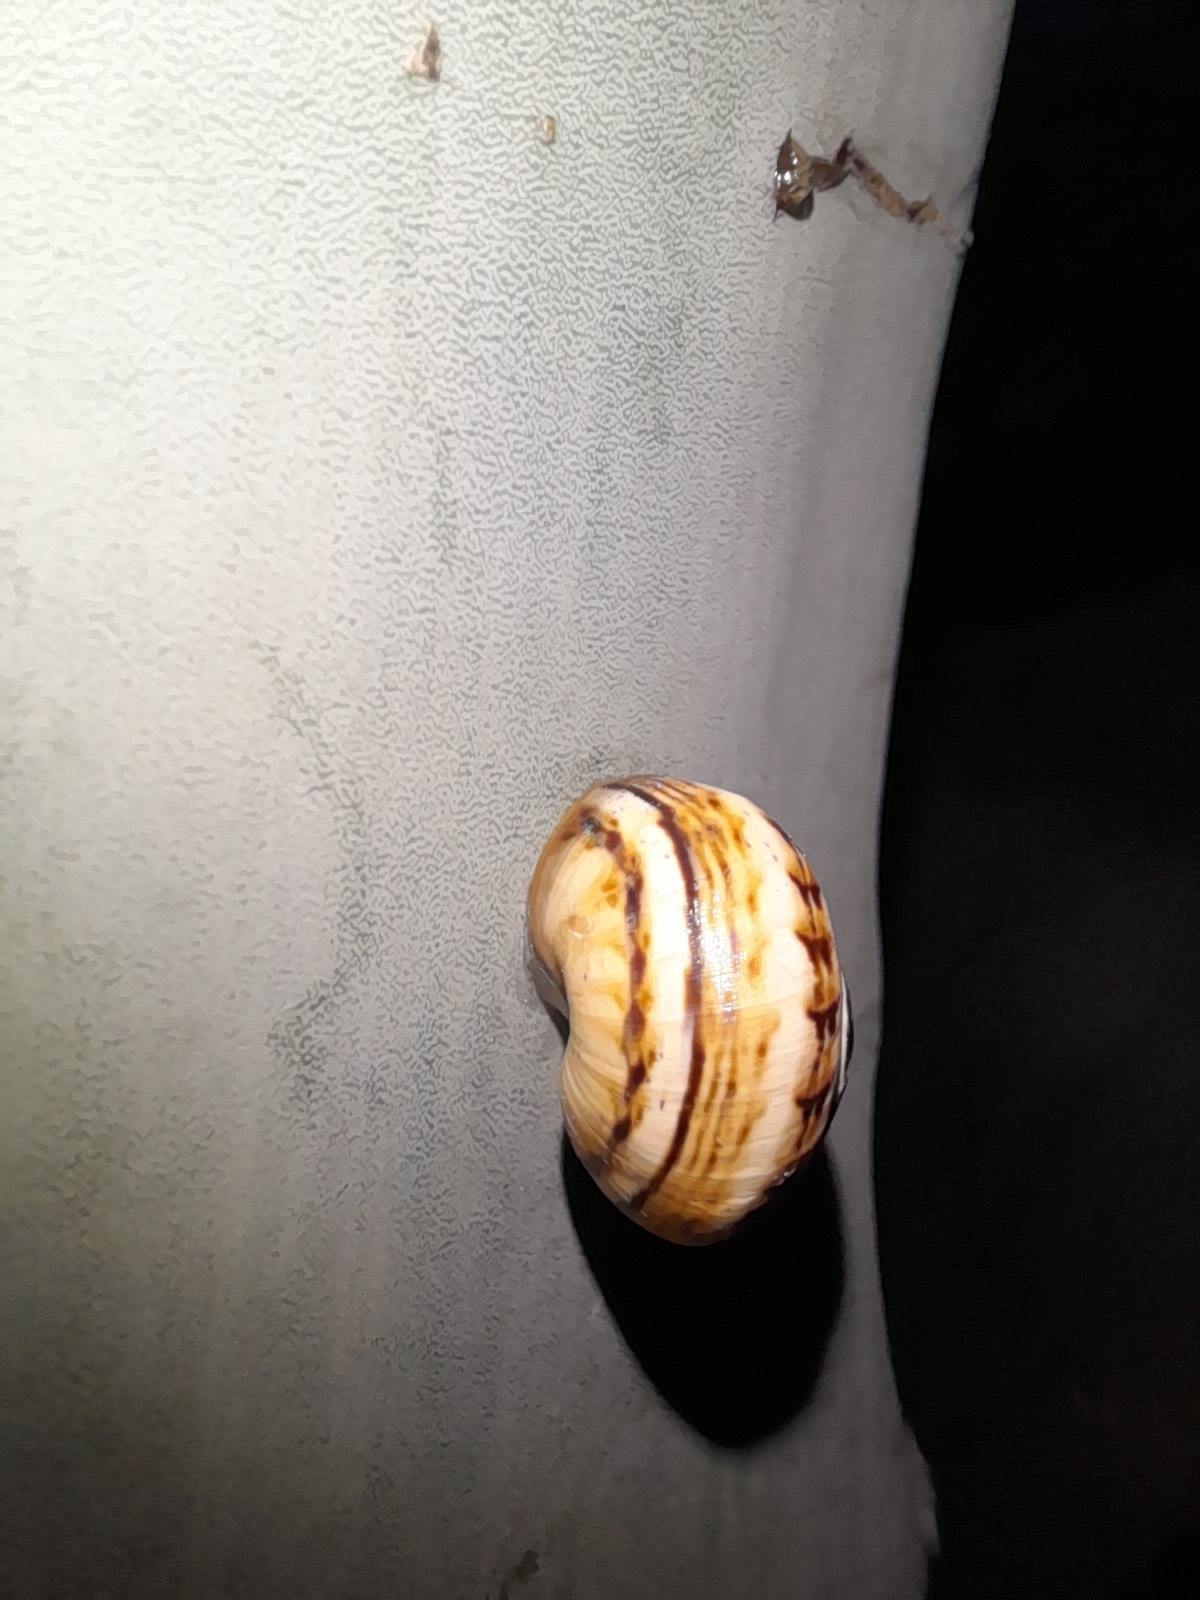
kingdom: Animalia
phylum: Mollusca
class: Gastropoda
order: Stylommatophora
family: Helicidae
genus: Theba
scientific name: Theba pisana
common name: White snail
